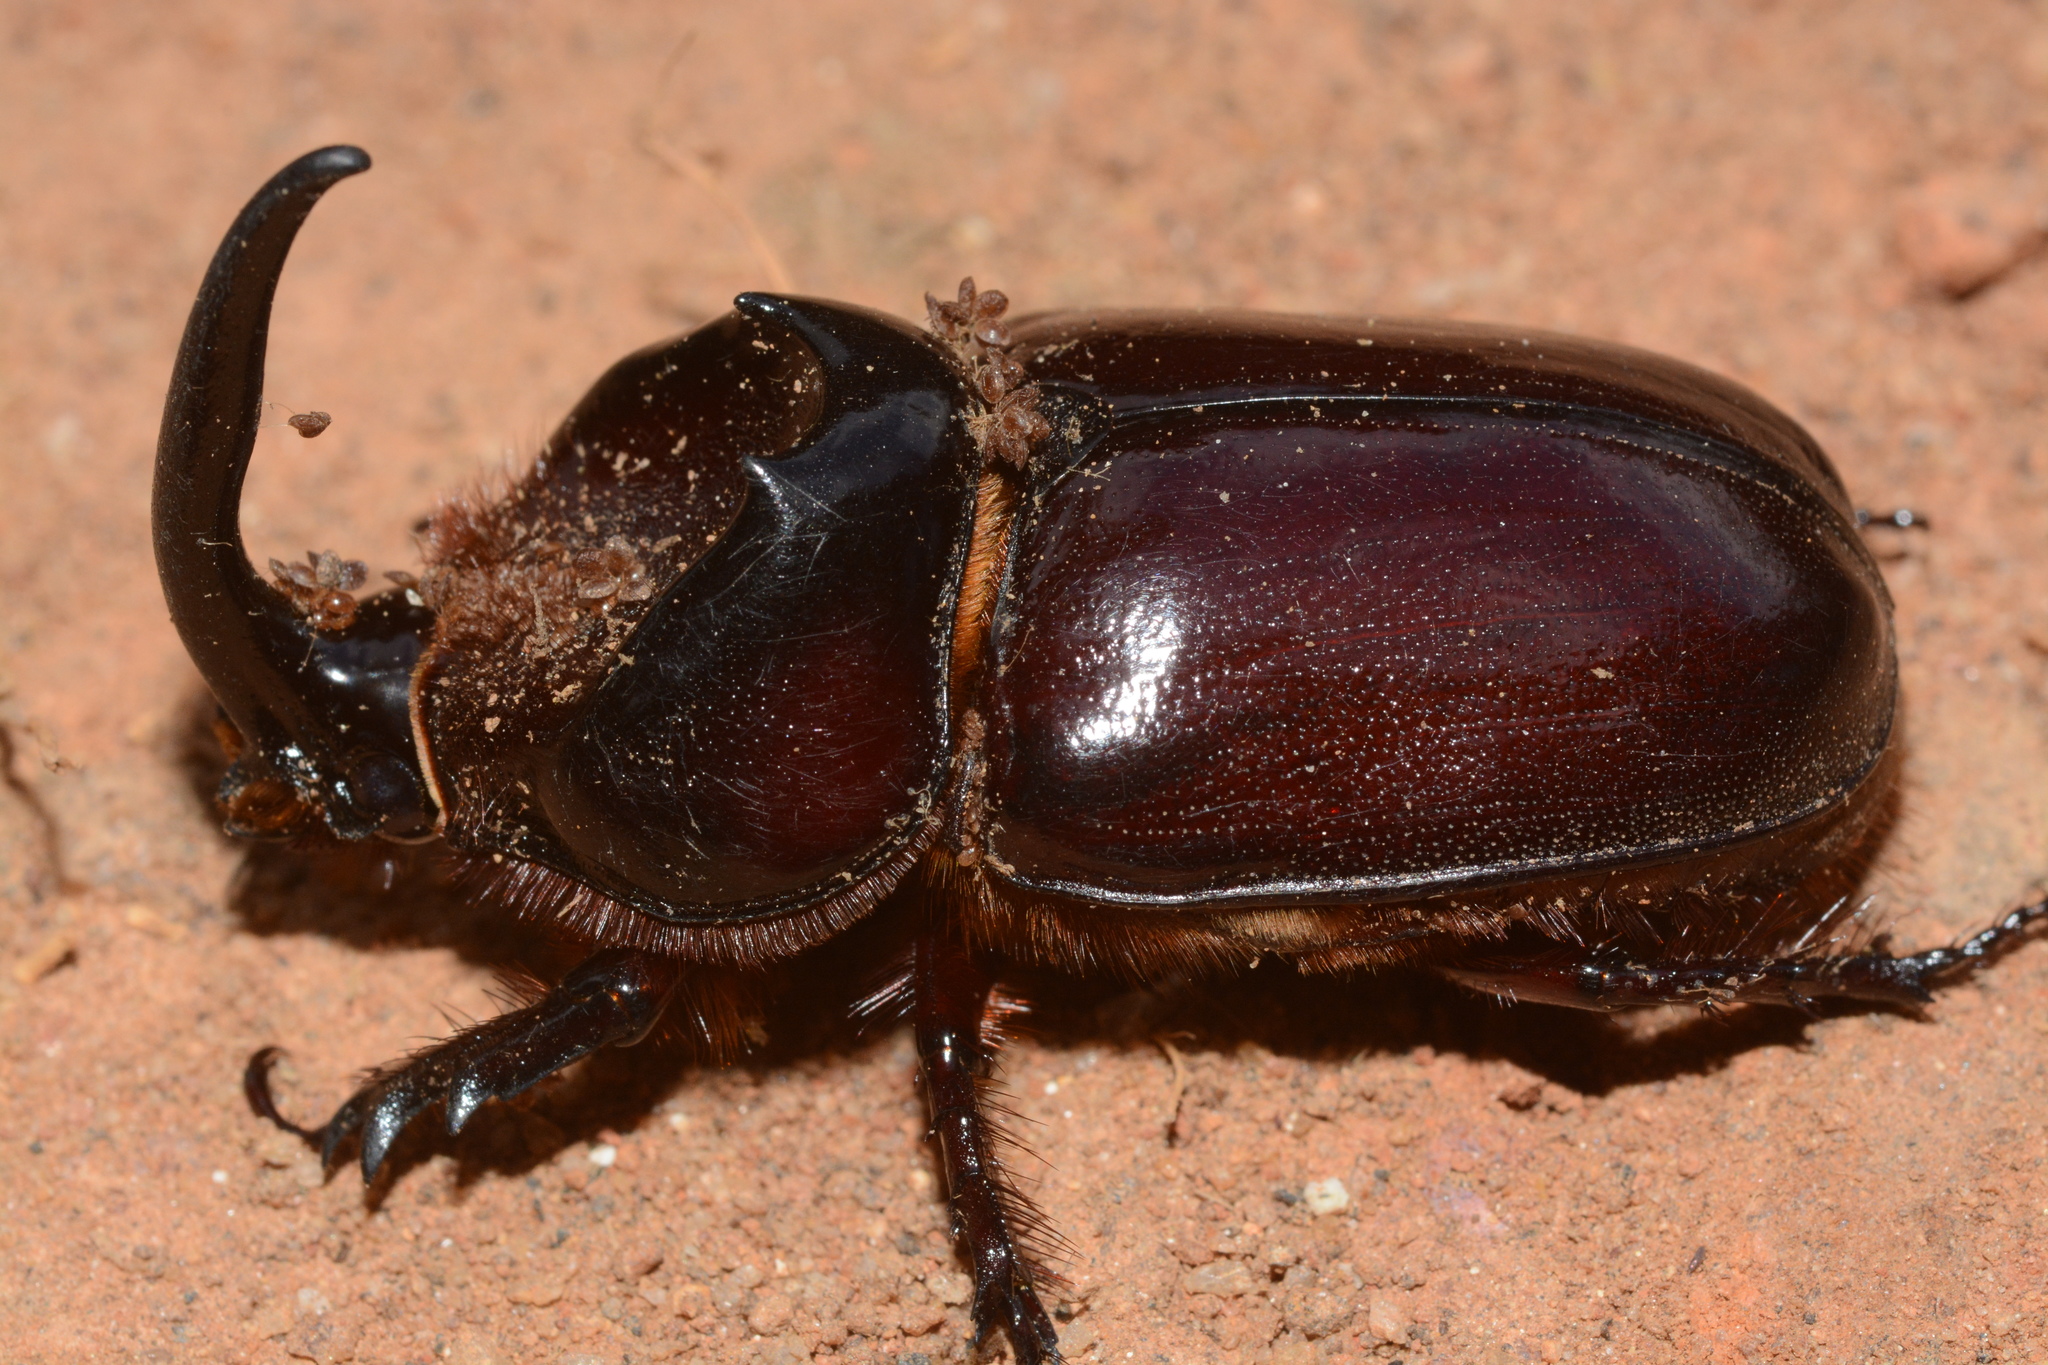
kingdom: Animalia
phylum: Arthropoda
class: Insecta
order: Coleoptera
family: Scarabaeidae
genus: Oryctes
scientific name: Oryctes boas
